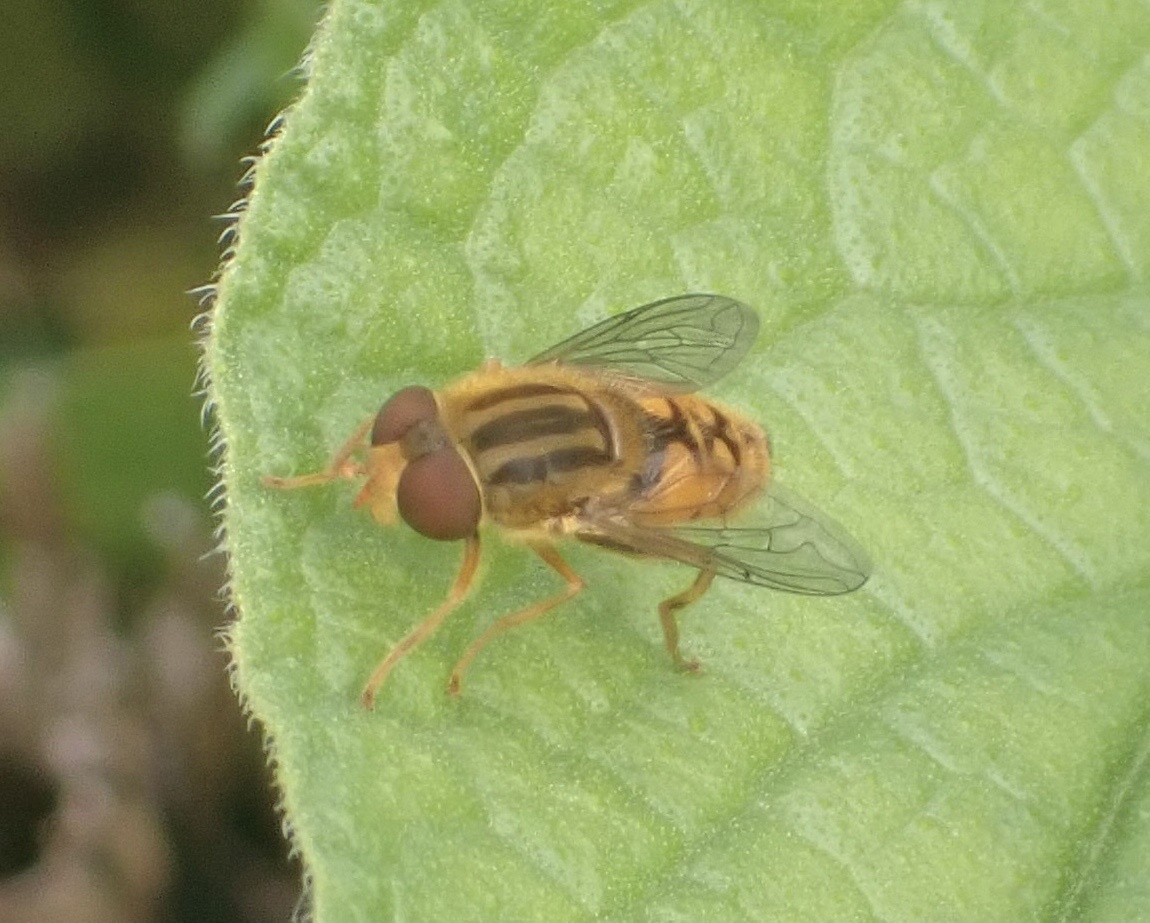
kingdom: Animalia
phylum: Arthropoda
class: Insecta
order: Diptera
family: Syrphidae
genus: Parhelophilus
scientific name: Parhelophilus
